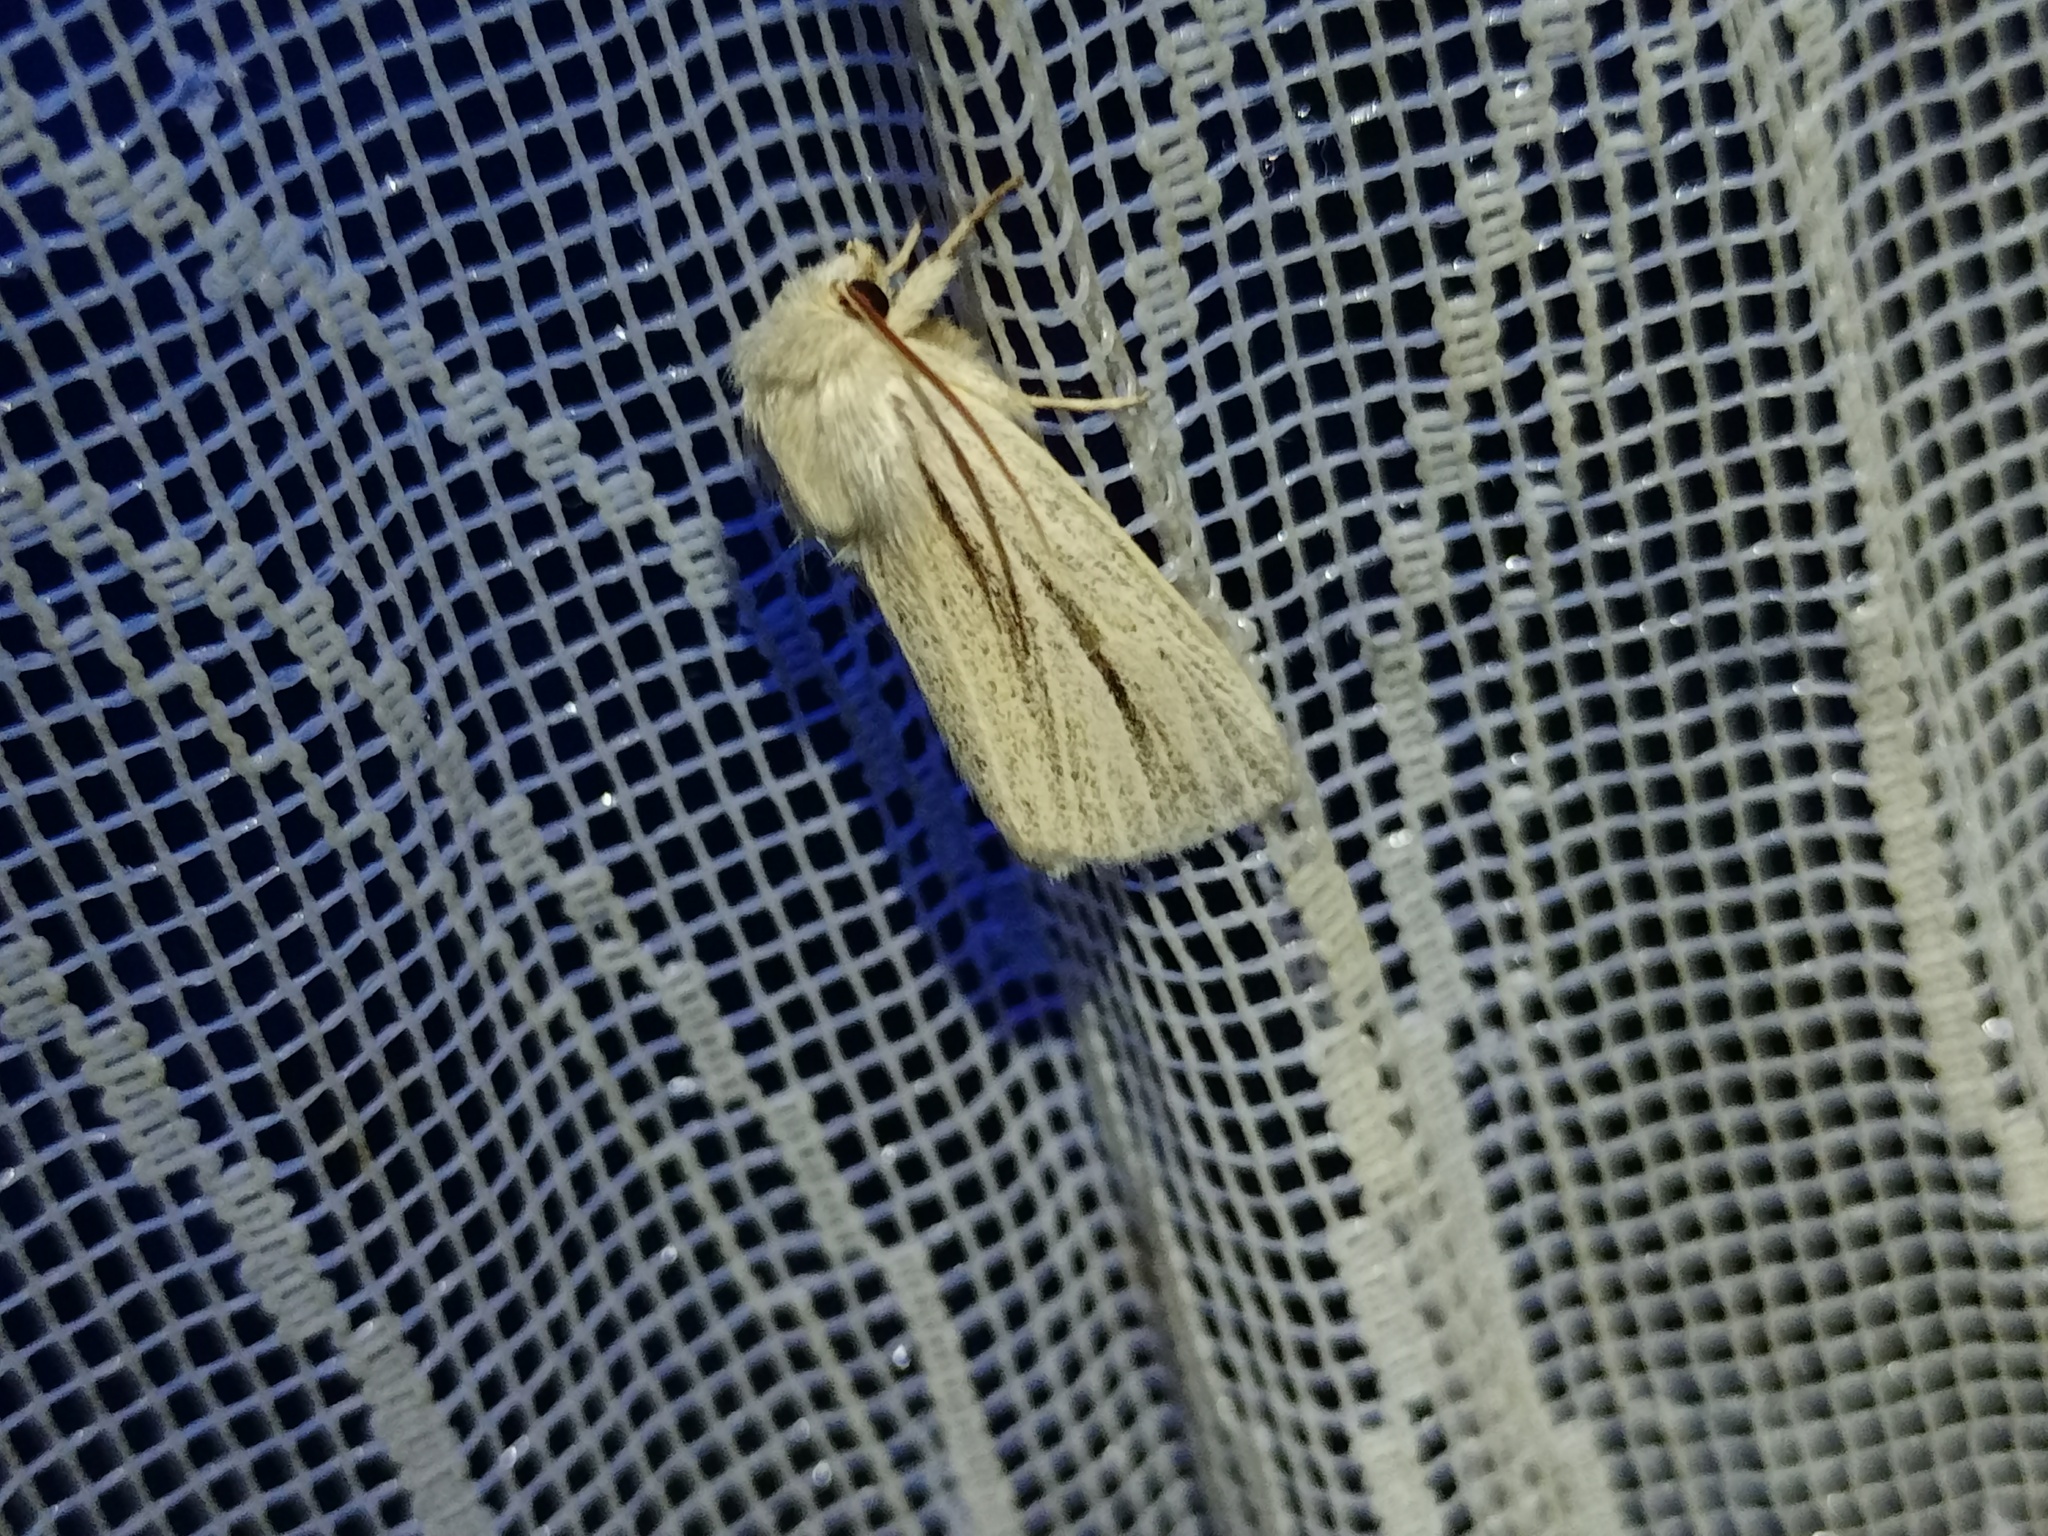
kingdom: Animalia
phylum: Arthropoda
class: Insecta
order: Lepidoptera
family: Noctuidae
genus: Simyra
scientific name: Simyra albovenosa
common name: Reed dagger
